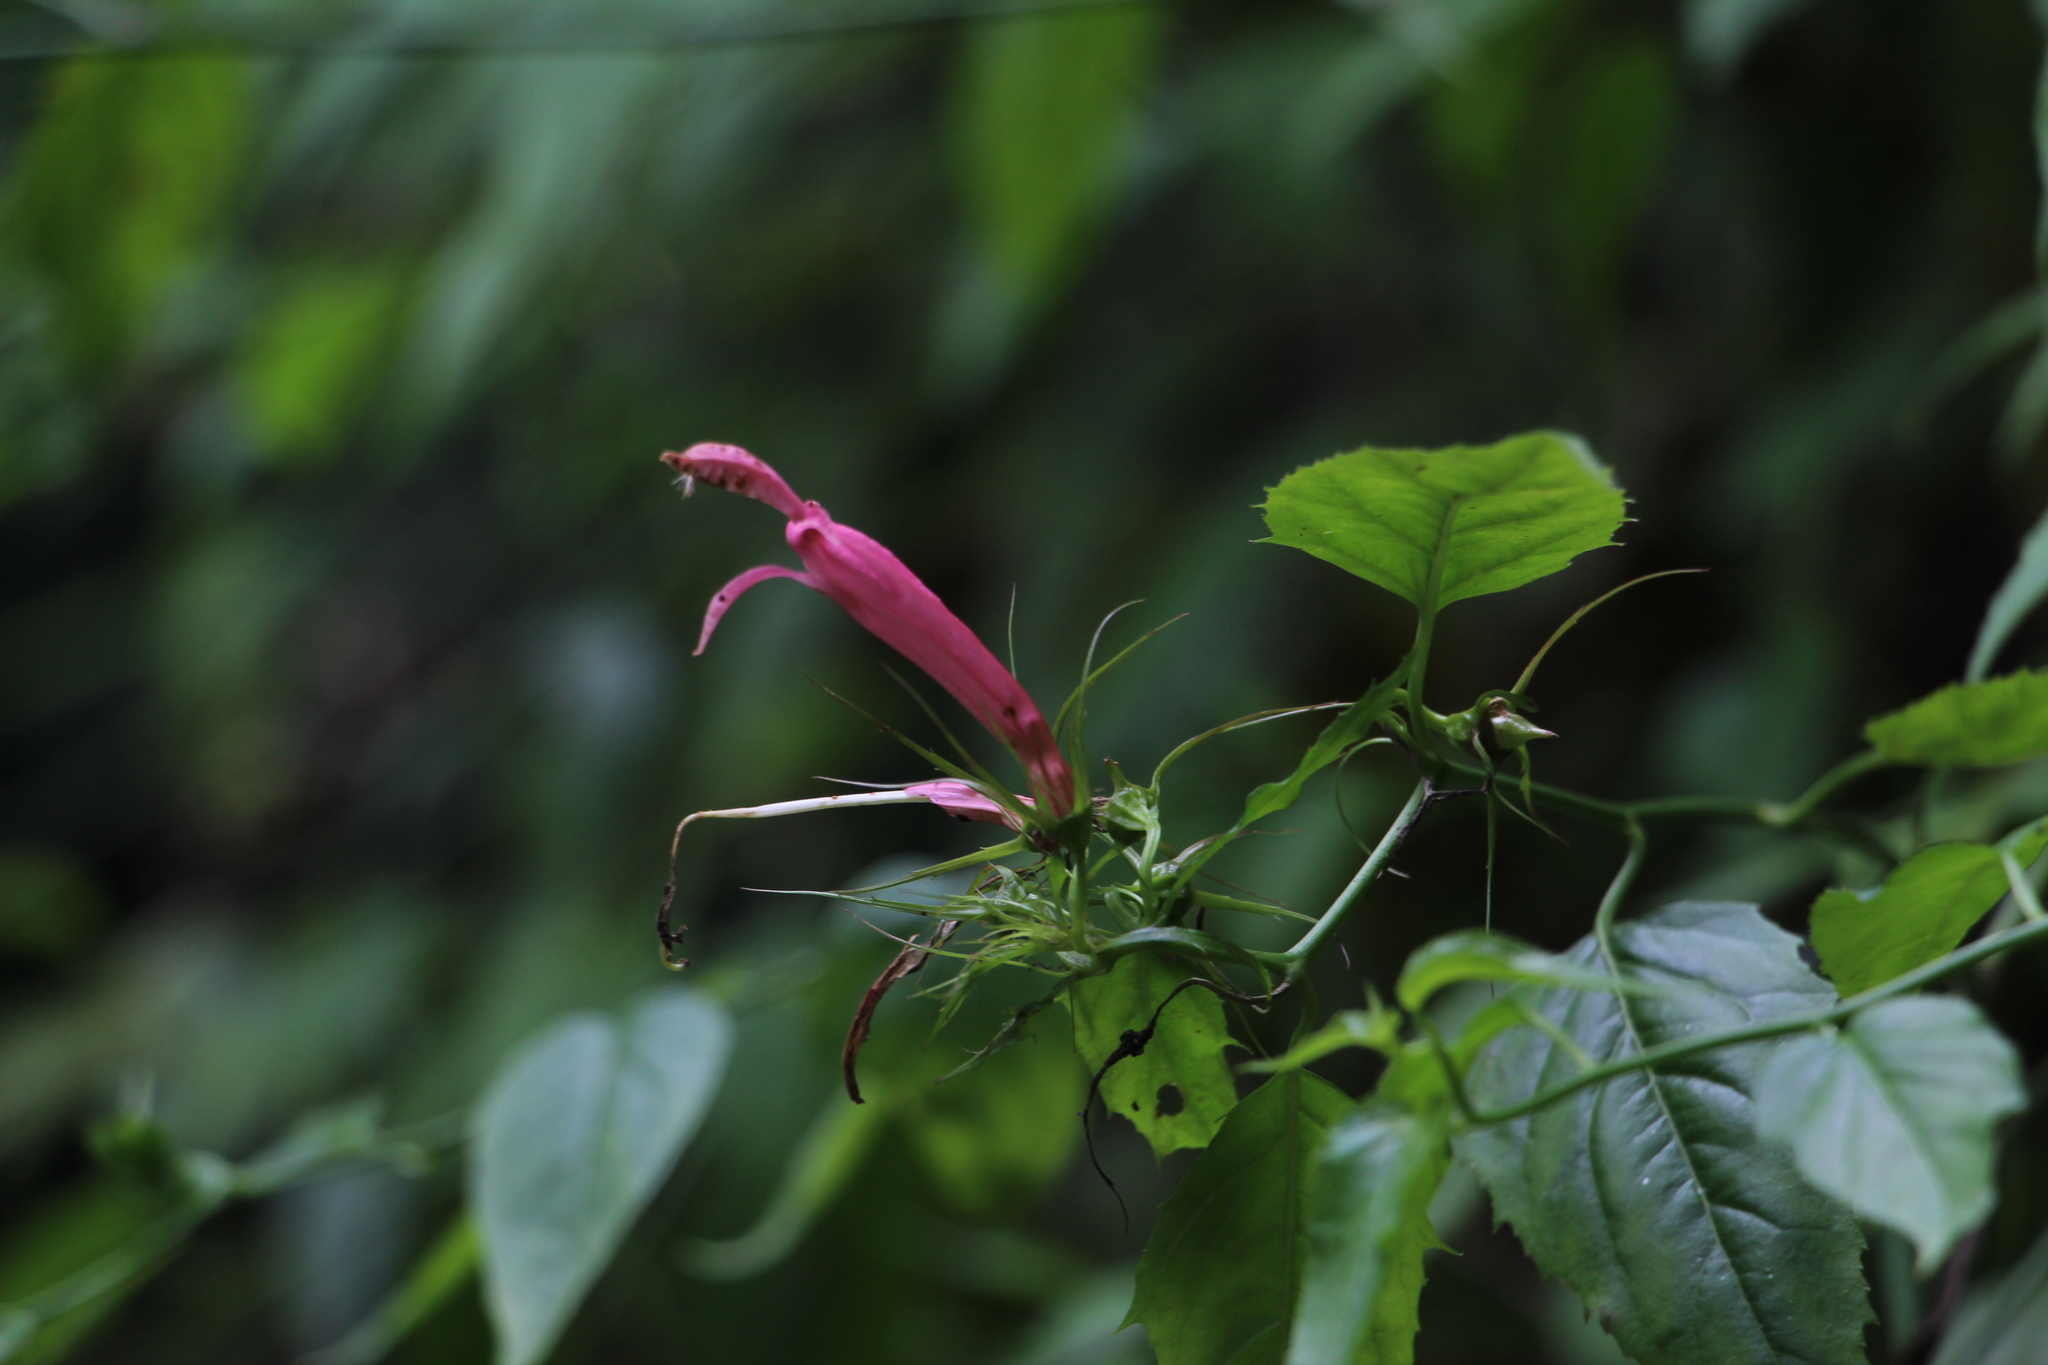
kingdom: Plantae
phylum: Tracheophyta
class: Magnoliopsida
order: Asterales
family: Campanulaceae
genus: Siphocampylus
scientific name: Siphocampylus longibracteolatus
